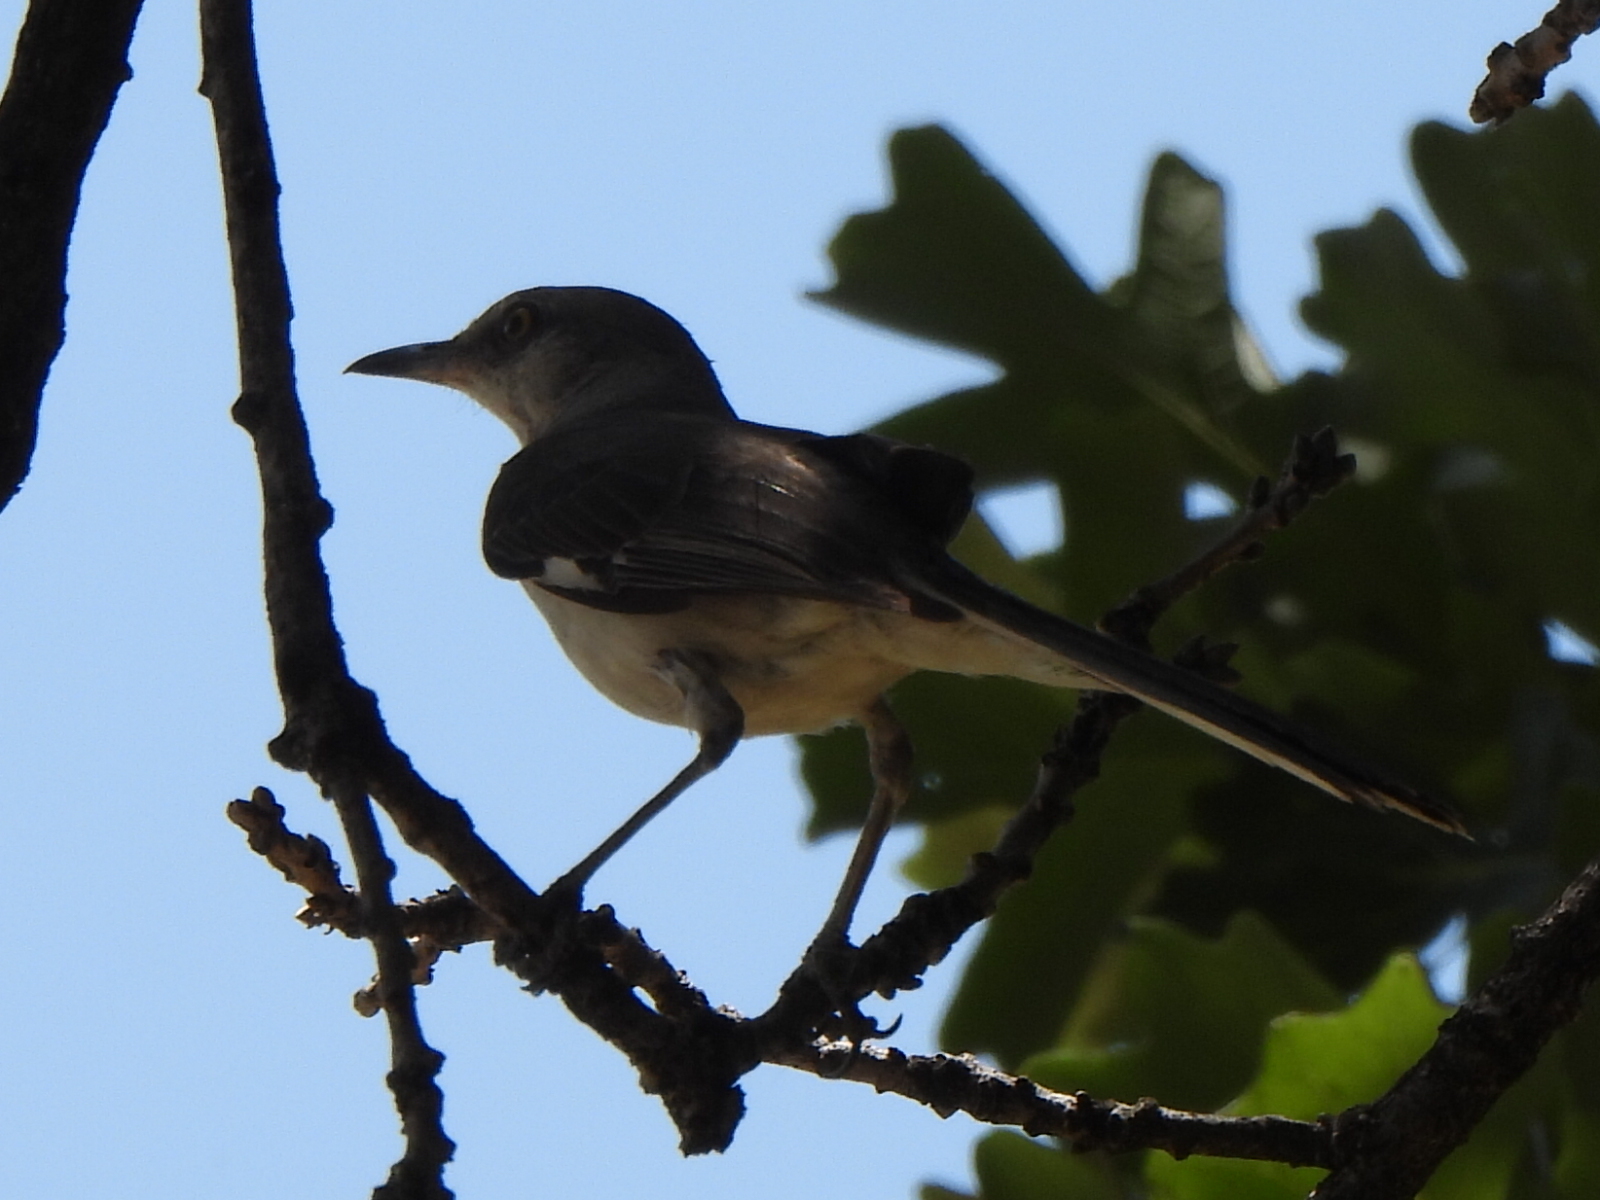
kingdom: Animalia
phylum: Chordata
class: Aves
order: Passeriformes
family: Mimidae
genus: Mimus
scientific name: Mimus polyglottos
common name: Northern mockingbird
